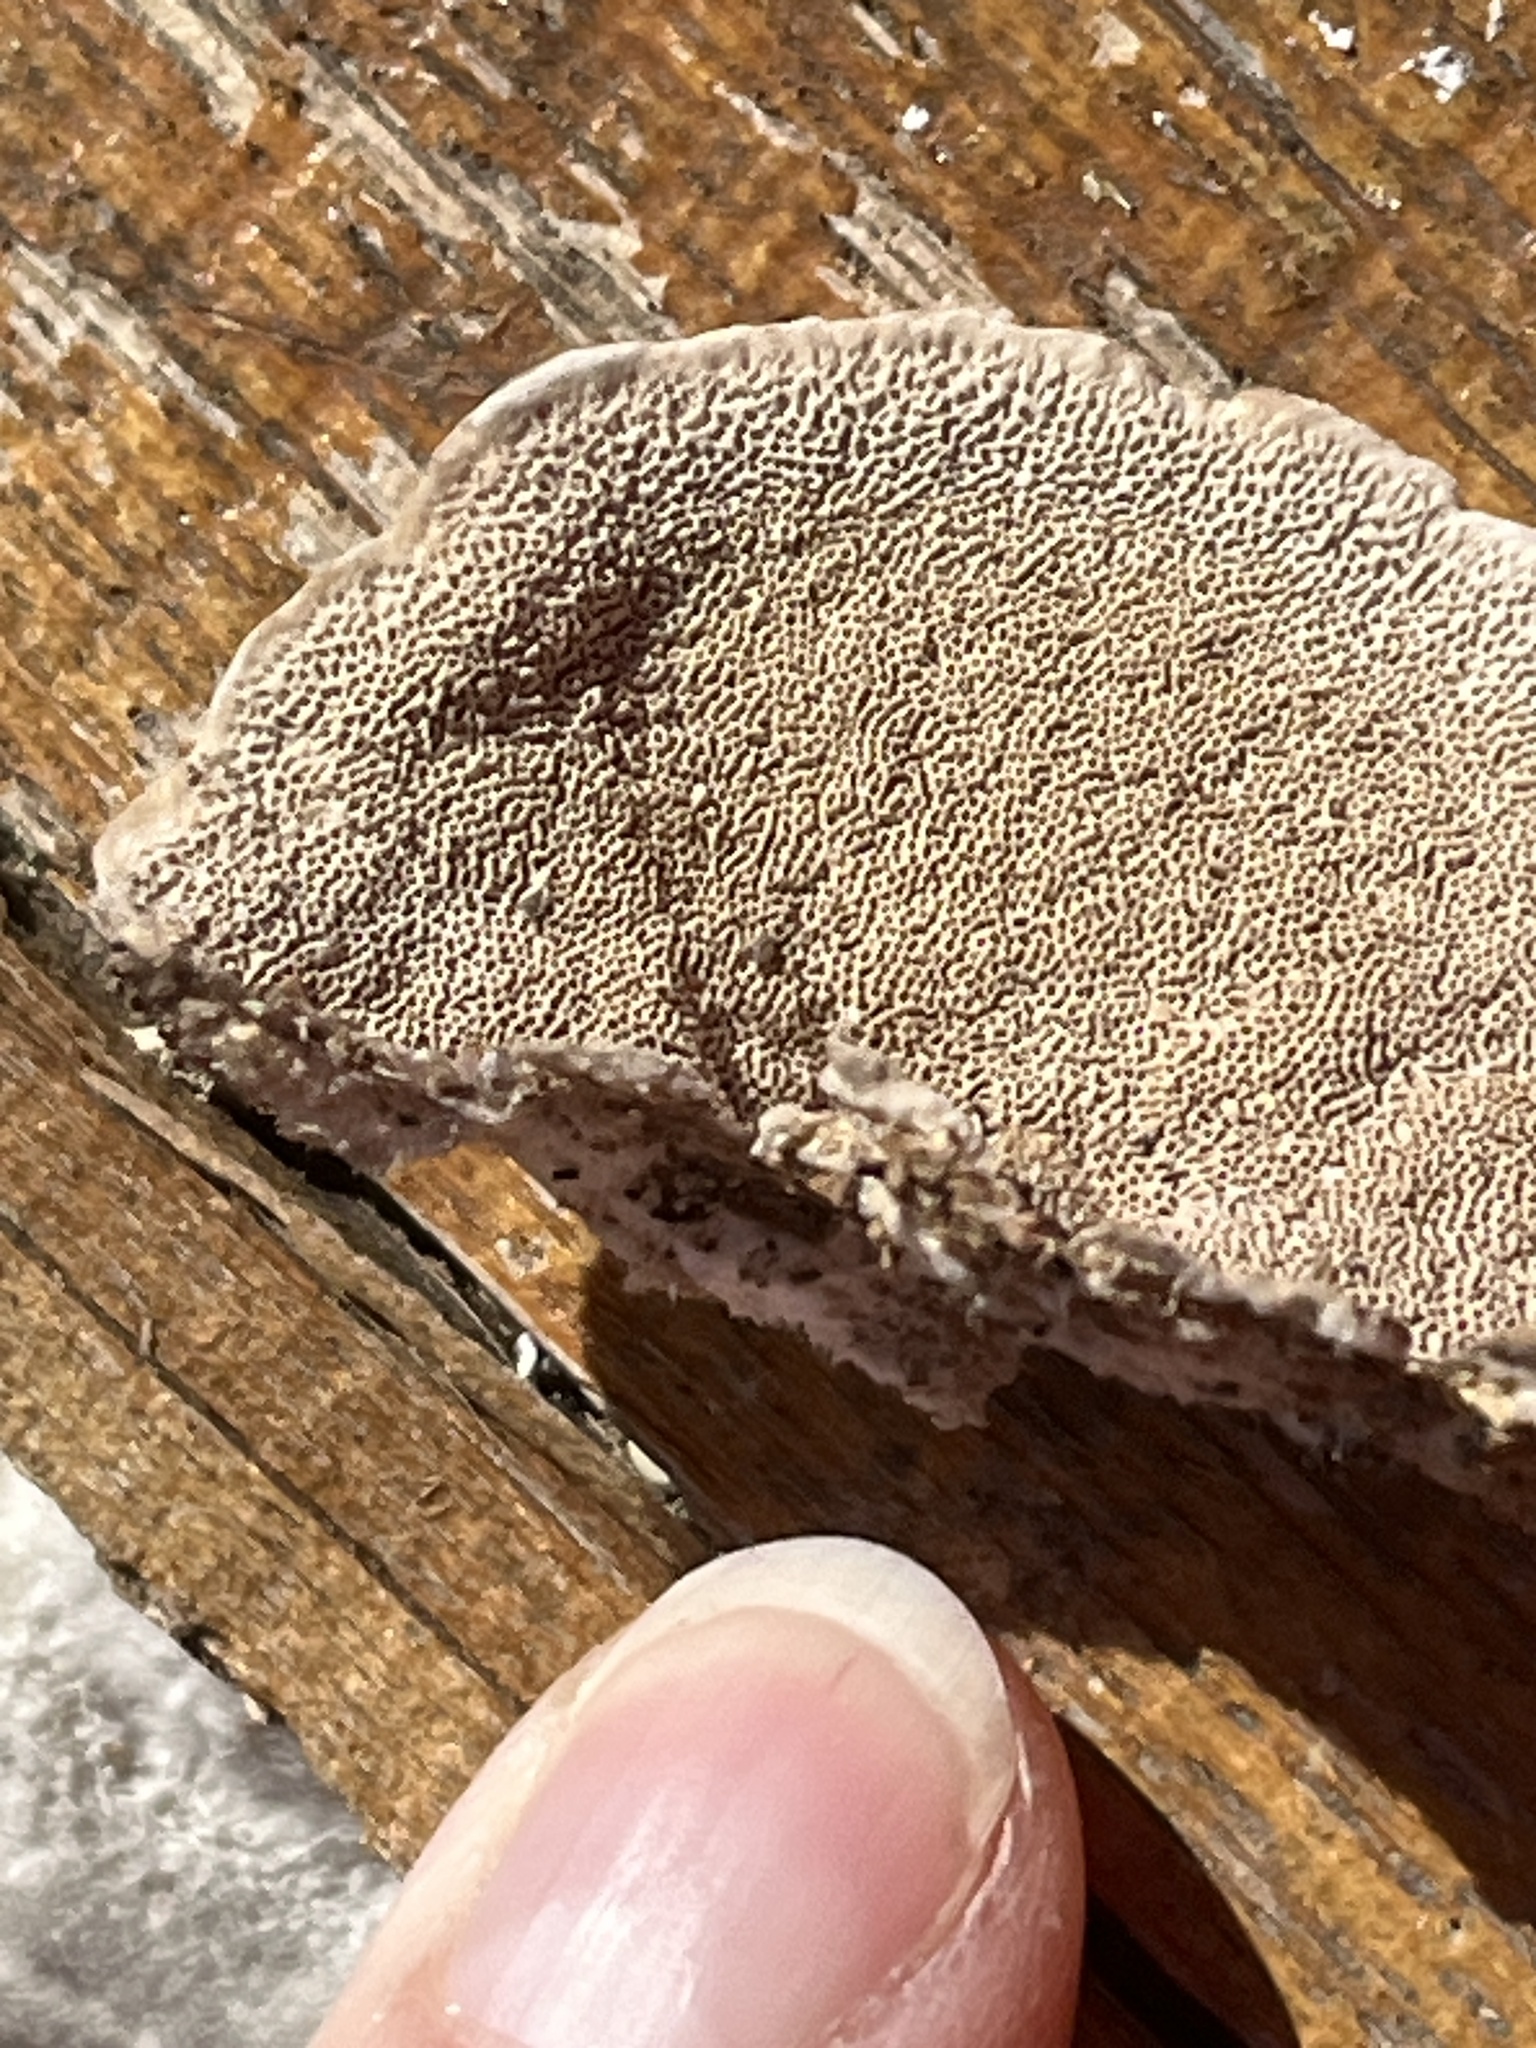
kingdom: Fungi
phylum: Basidiomycota
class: Agaricomycetes
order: Polyporales
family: Polyporaceae
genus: Trametes
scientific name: Trametes hirsuta
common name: Hairy bracket
